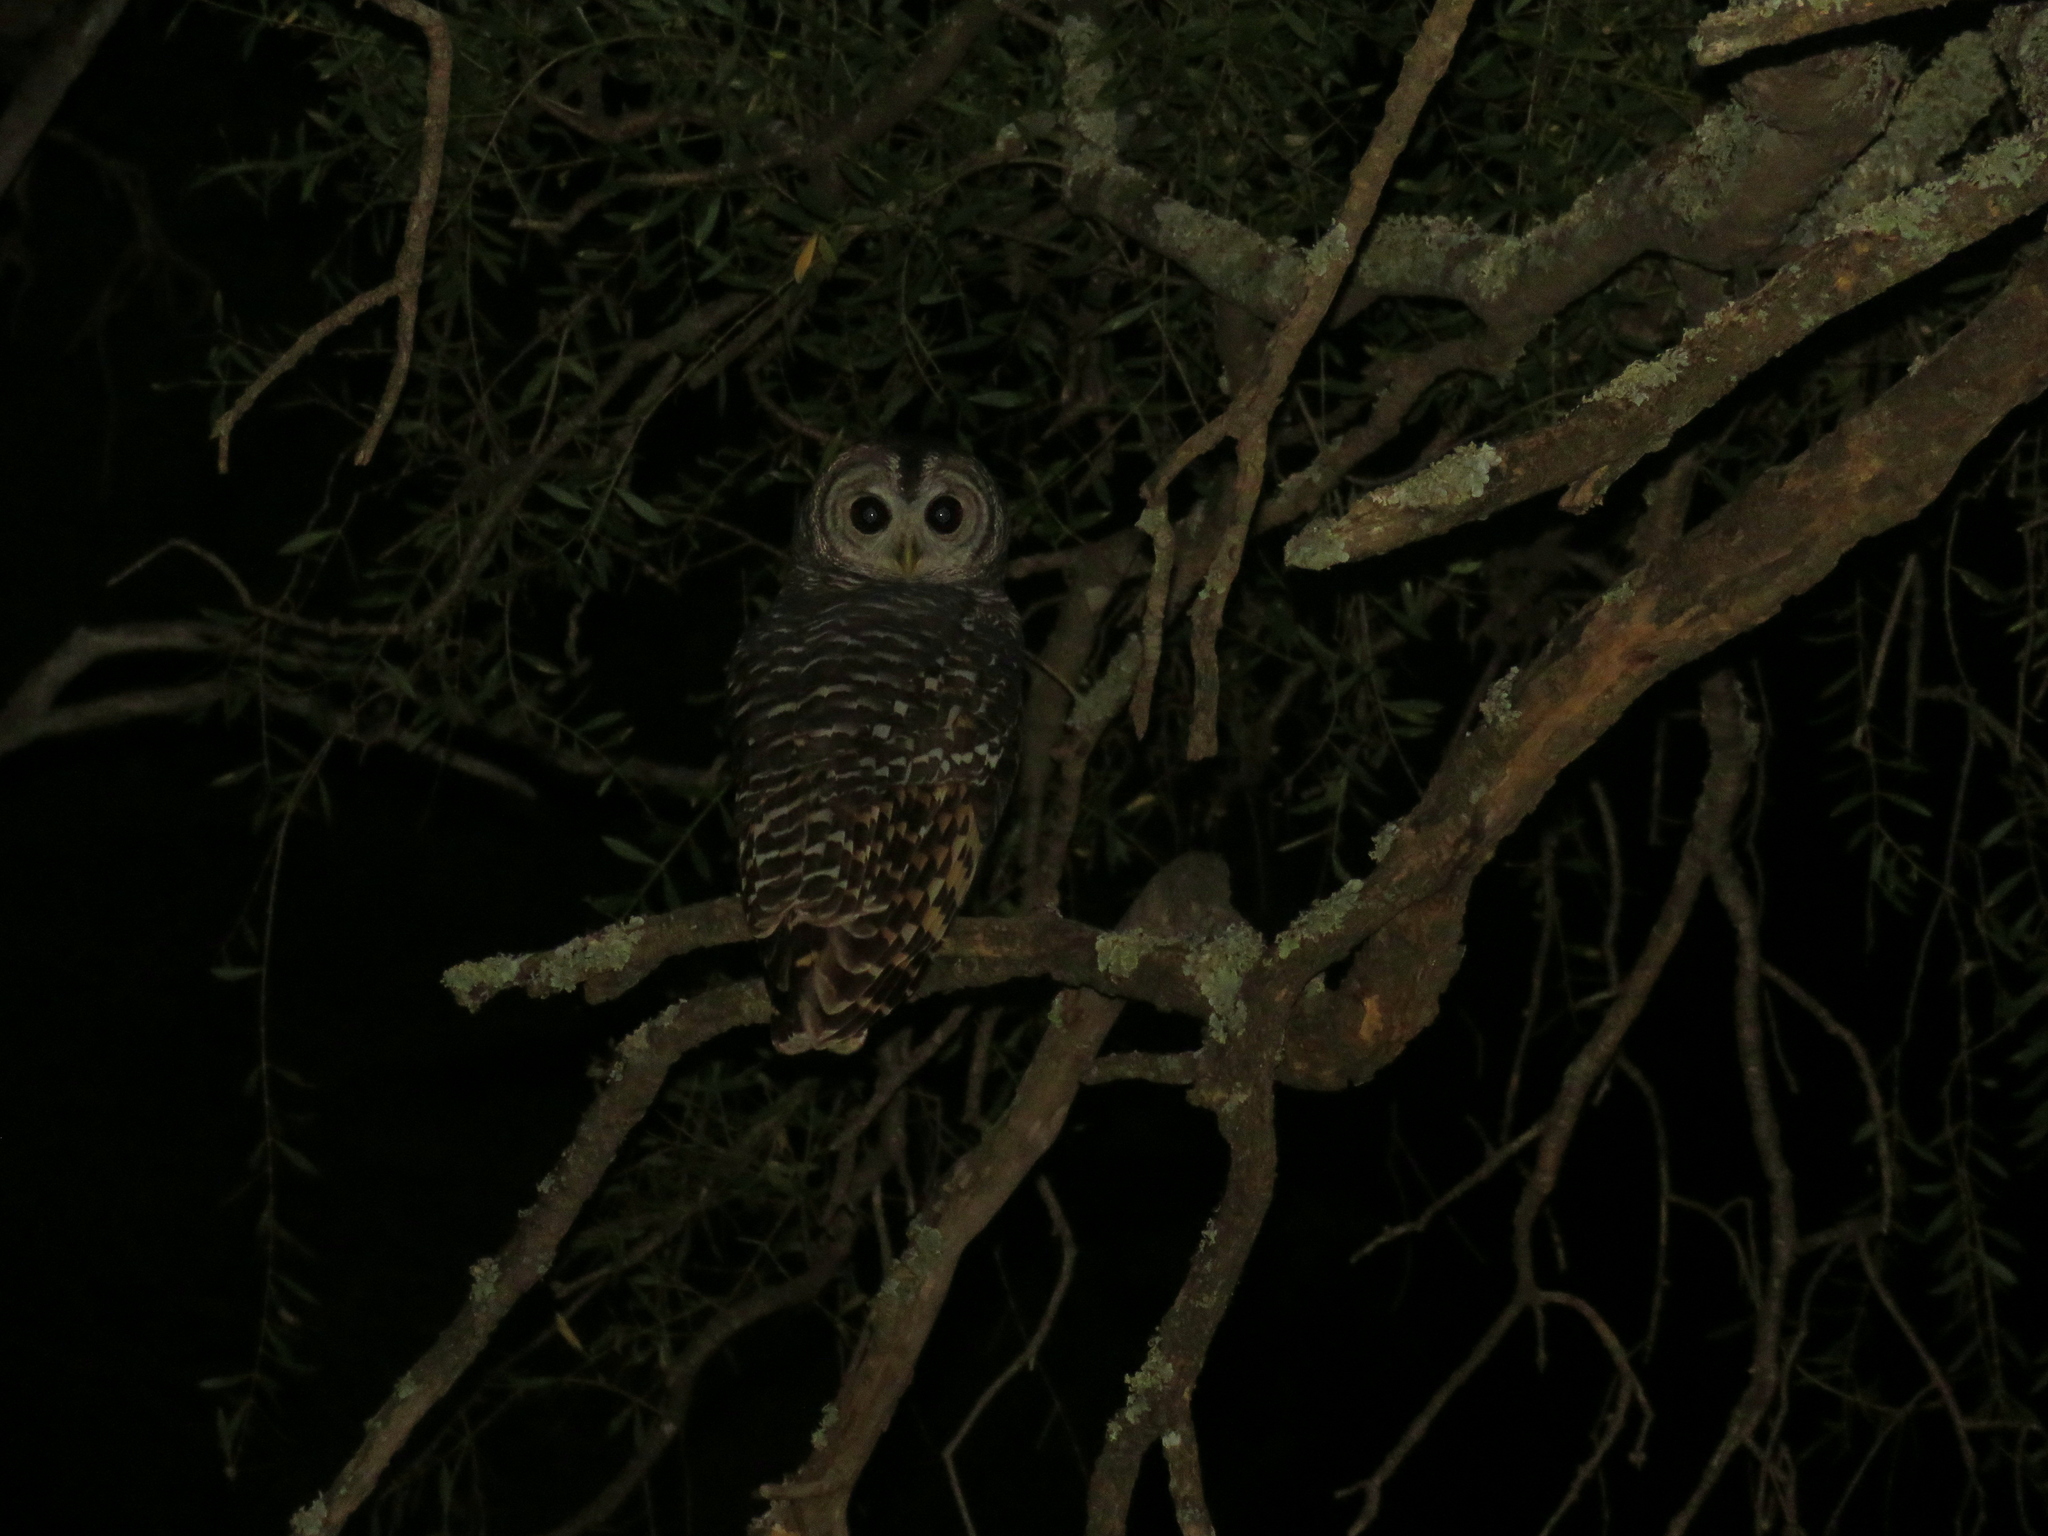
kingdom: Animalia
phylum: Chordata
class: Aves
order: Strigiformes
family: Strigidae
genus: Strix
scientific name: Strix chacoensis
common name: Chaco owl
